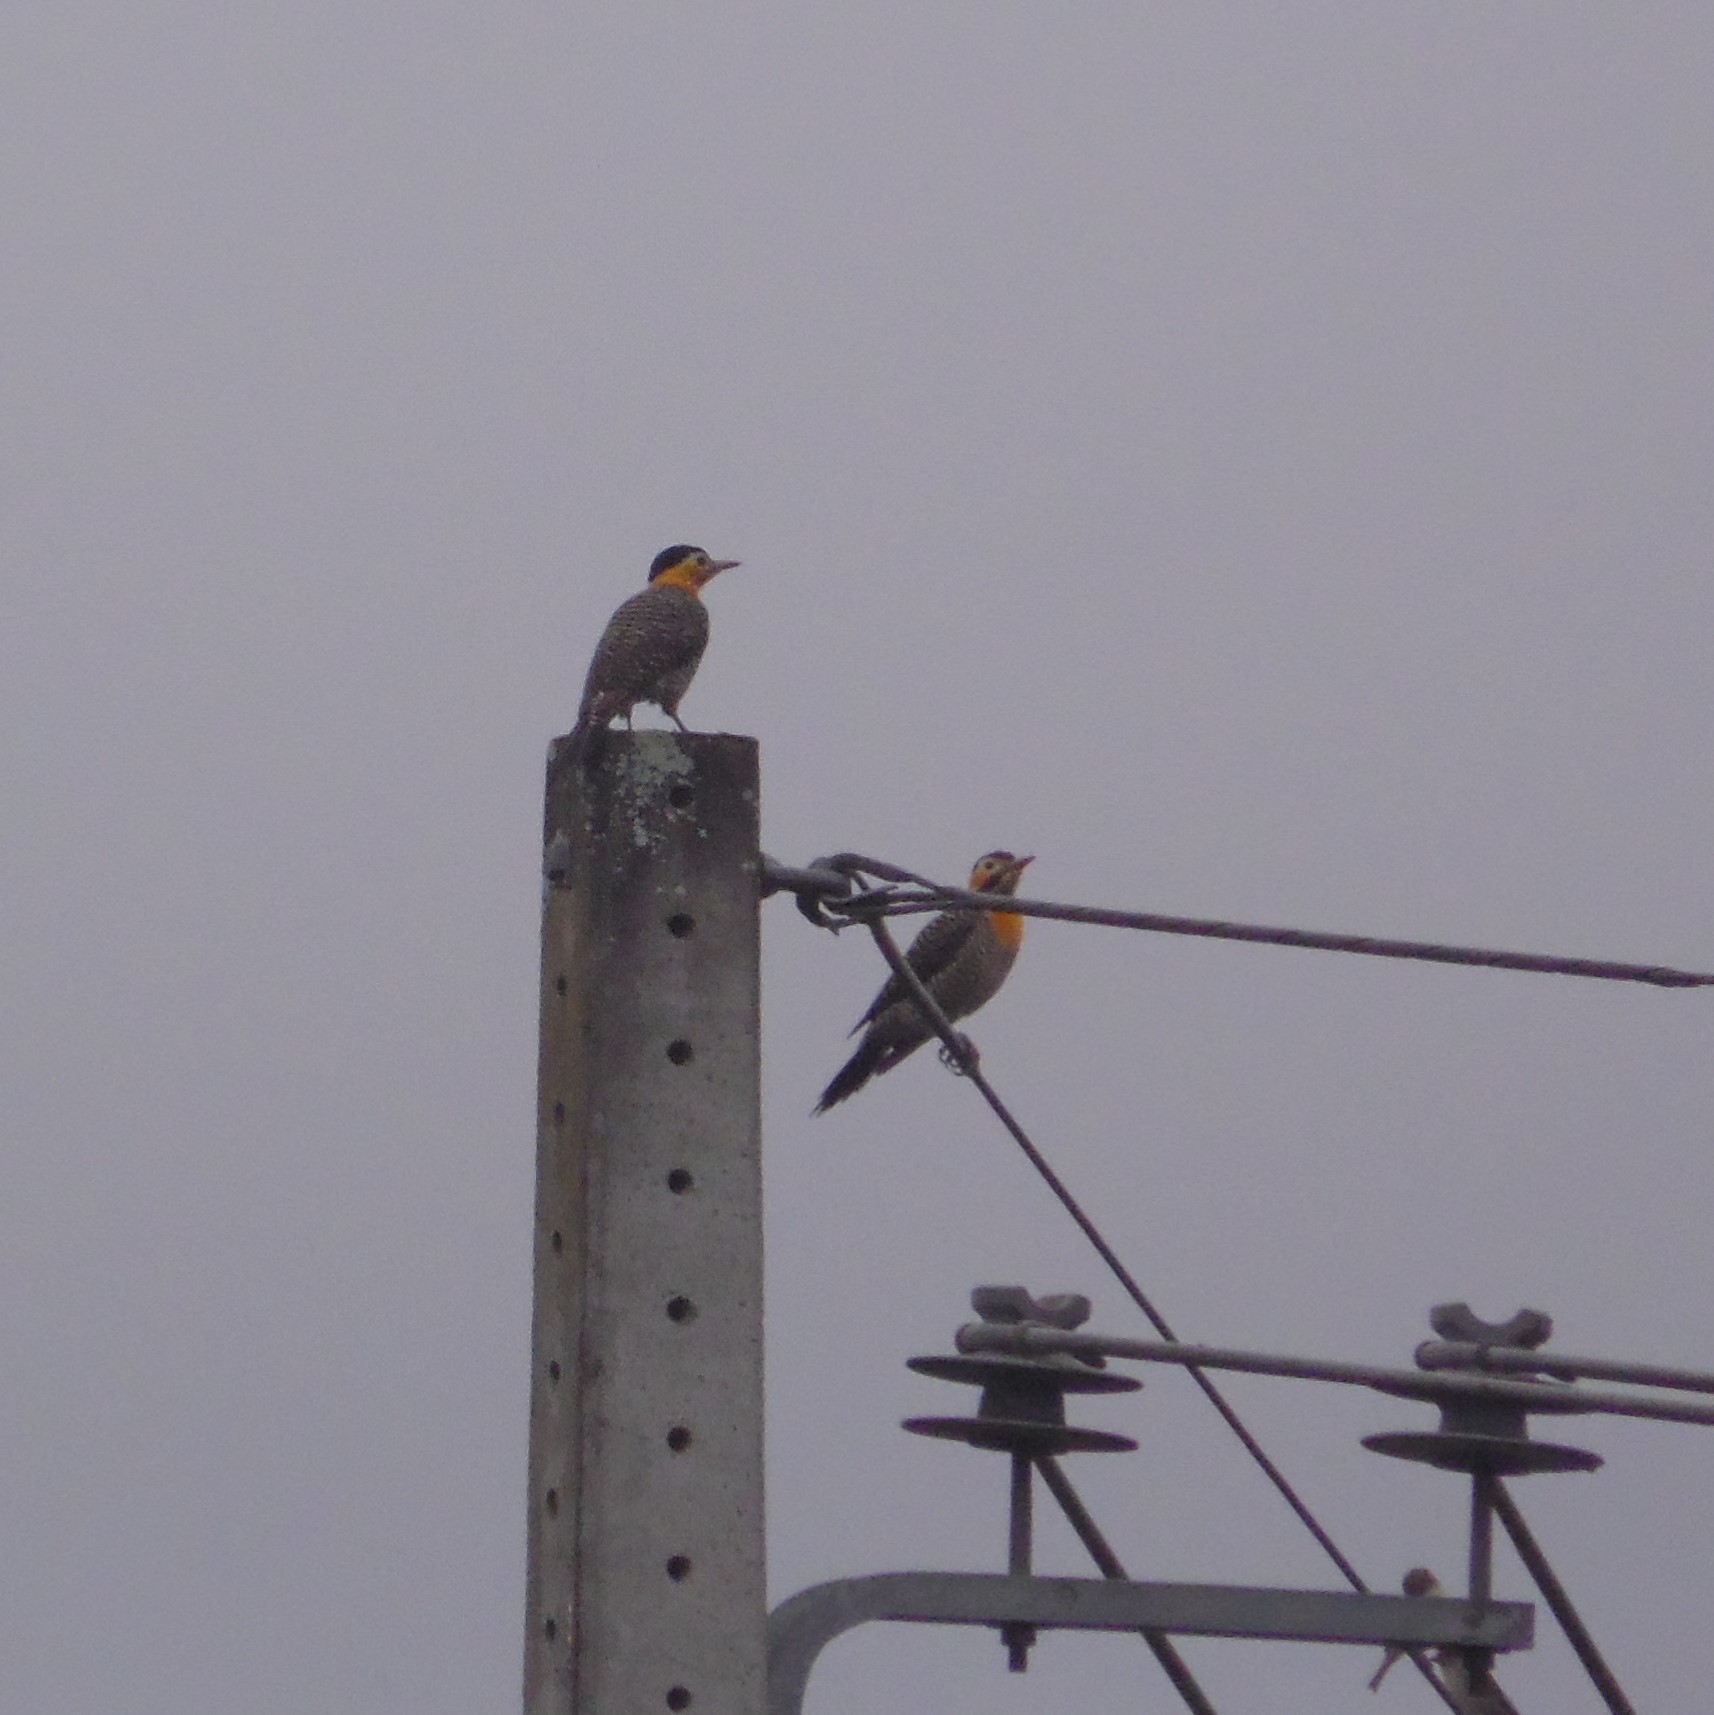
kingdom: Animalia
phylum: Chordata
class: Aves
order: Piciformes
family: Picidae
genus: Colaptes
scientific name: Colaptes campestris
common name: Campo flicker
